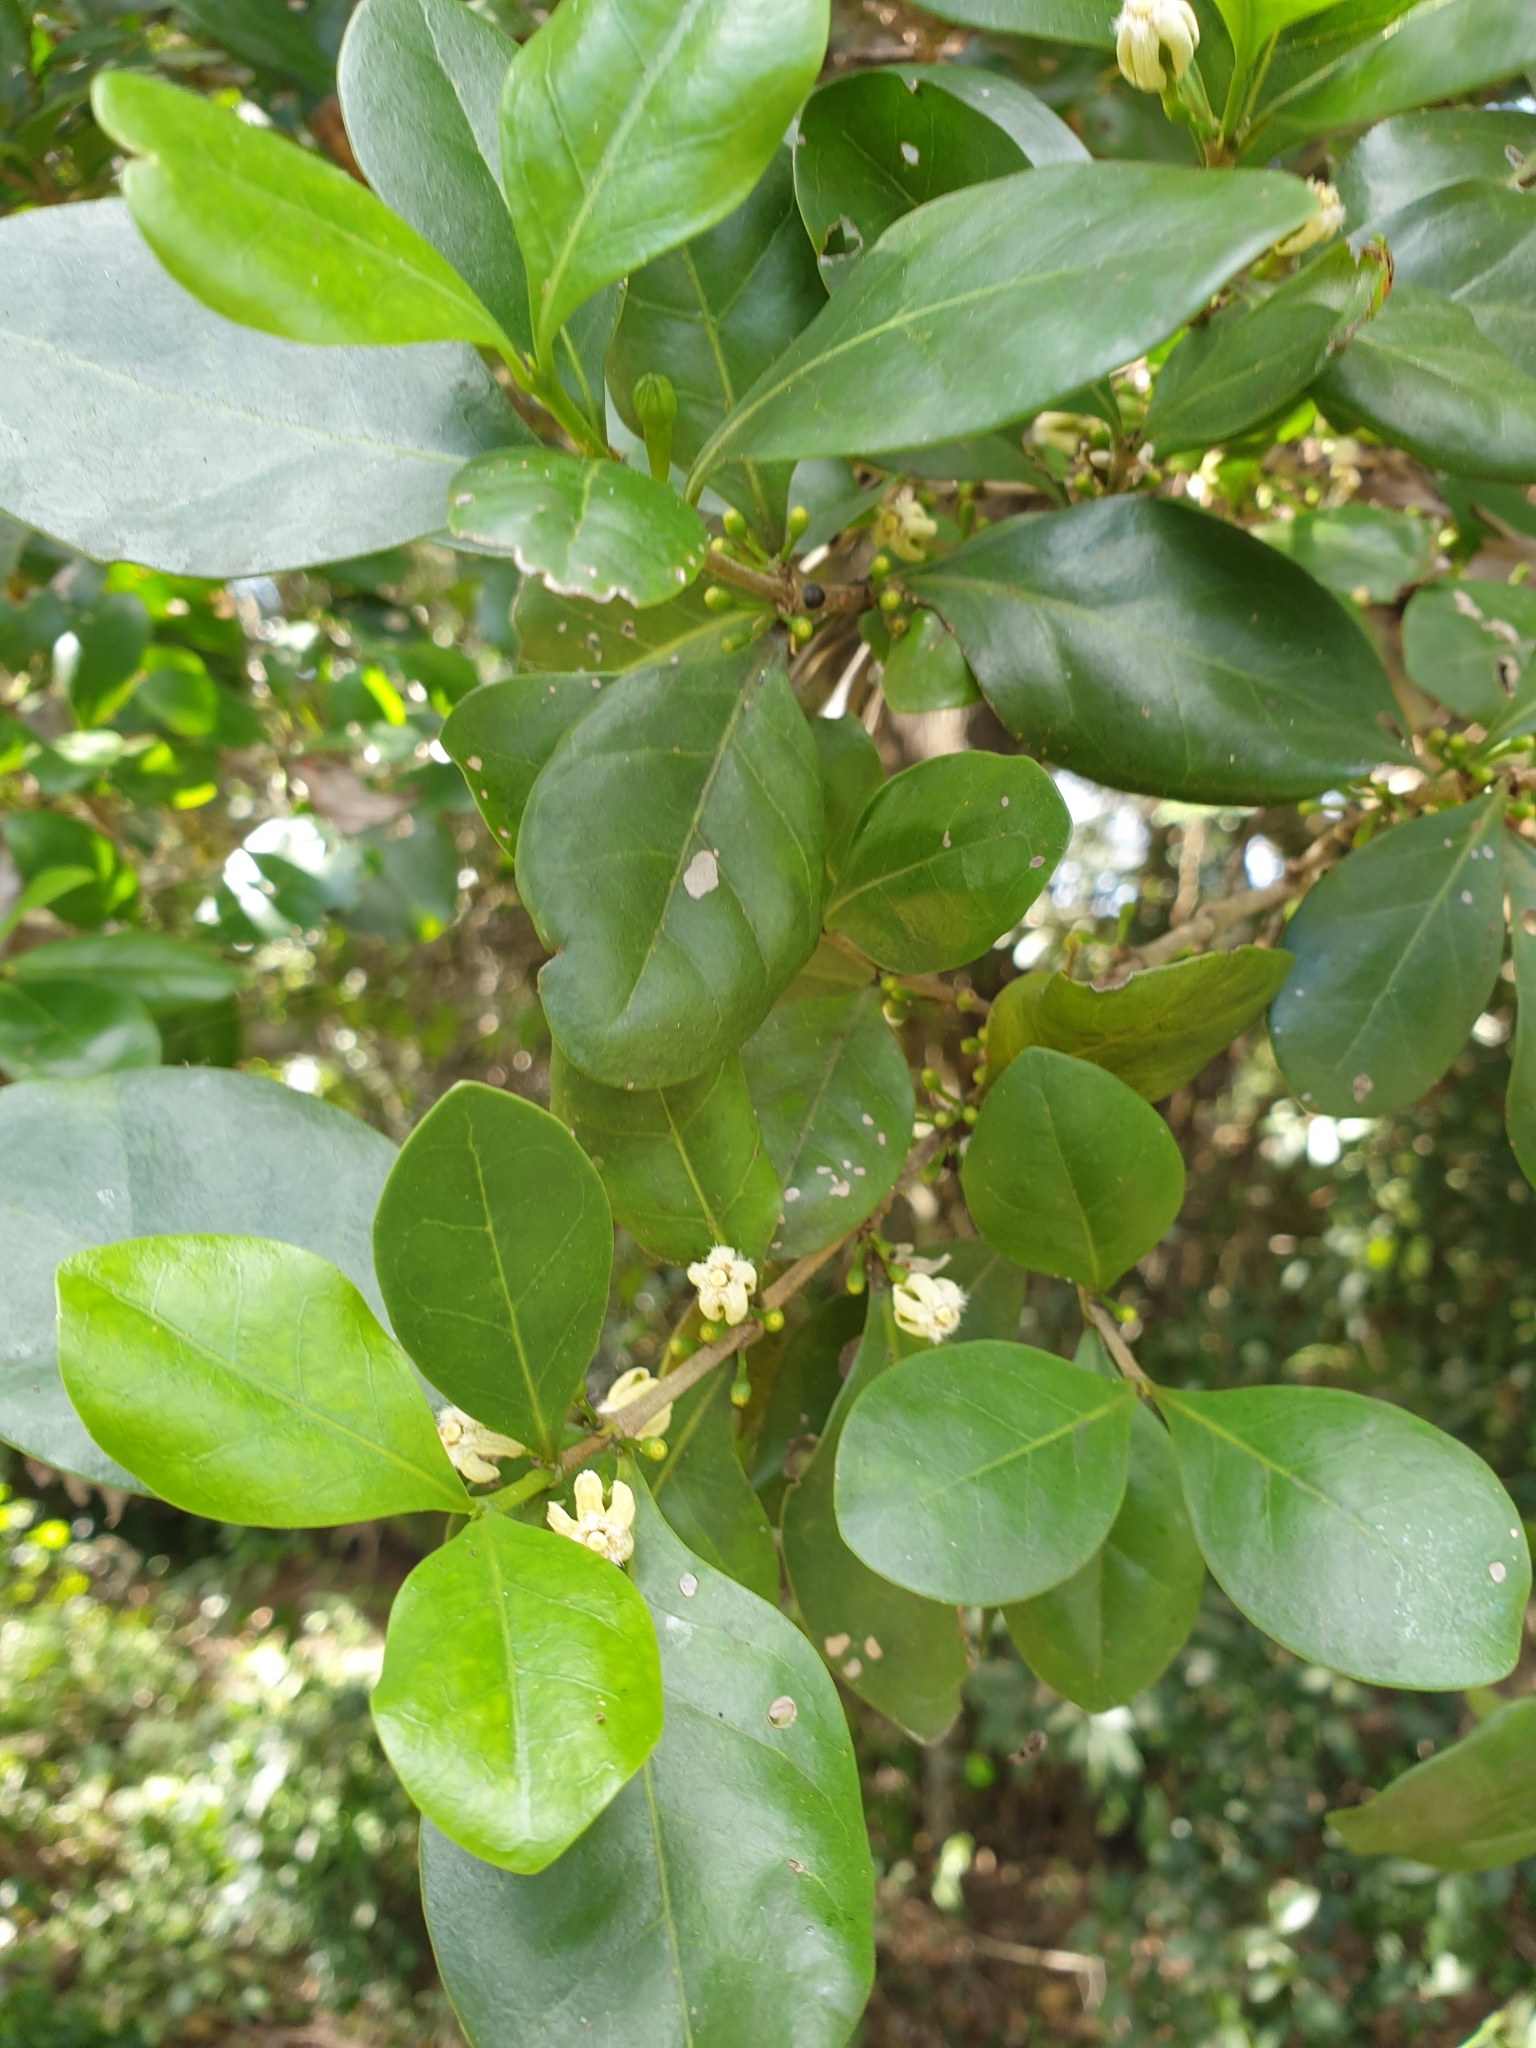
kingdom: Plantae
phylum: Tracheophyta
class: Magnoliopsida
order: Gentianales
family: Rubiaceae
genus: Cyclophyllum
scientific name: Cyclophyllum coprosmoides
